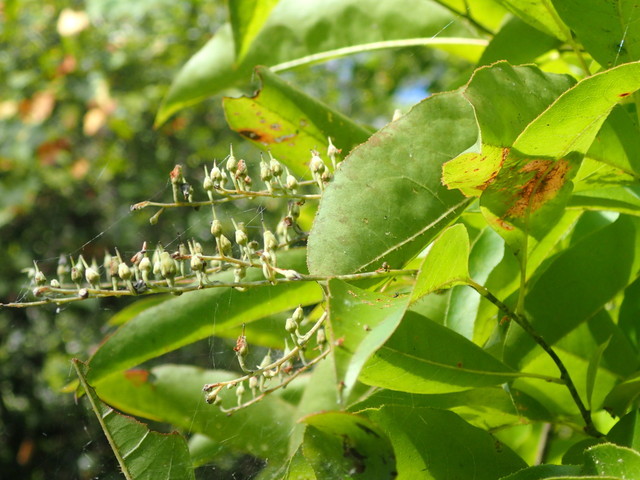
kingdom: Plantae
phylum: Tracheophyta
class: Magnoliopsida
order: Ericales
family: Ericaceae
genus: Oxydendrum
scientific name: Oxydendrum arboreum
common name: Sourwood
